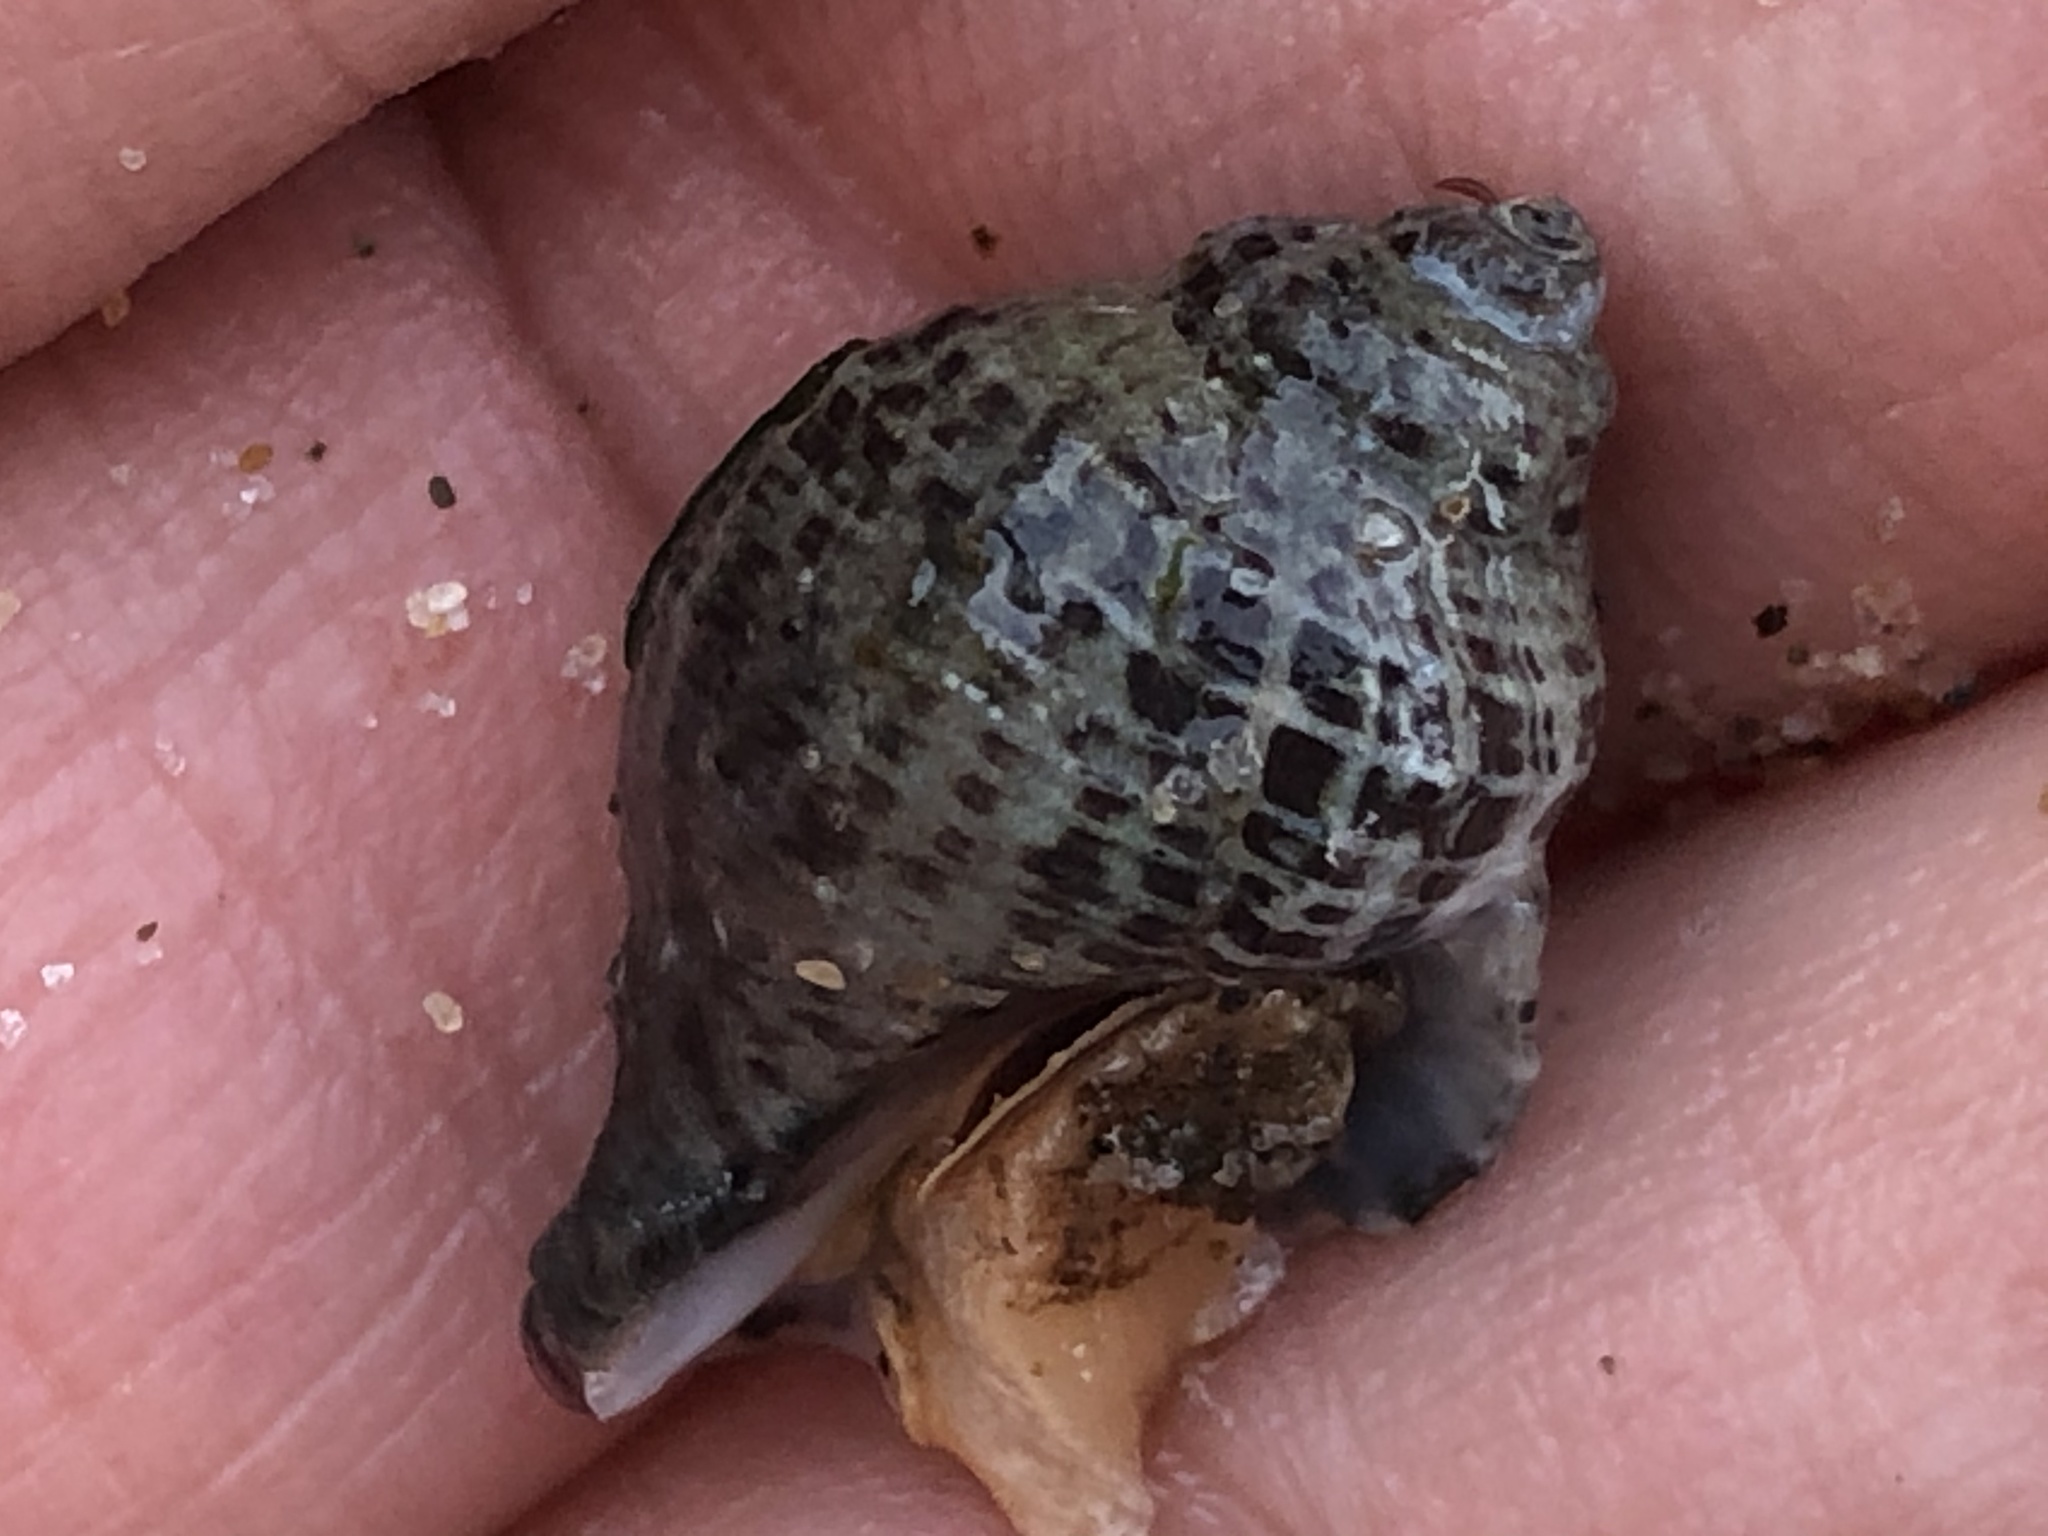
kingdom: Animalia
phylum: Mollusca
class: Gastropoda
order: Neogastropoda
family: Muricidae
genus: Acanthinucella
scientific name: Acanthinucella punctulata
